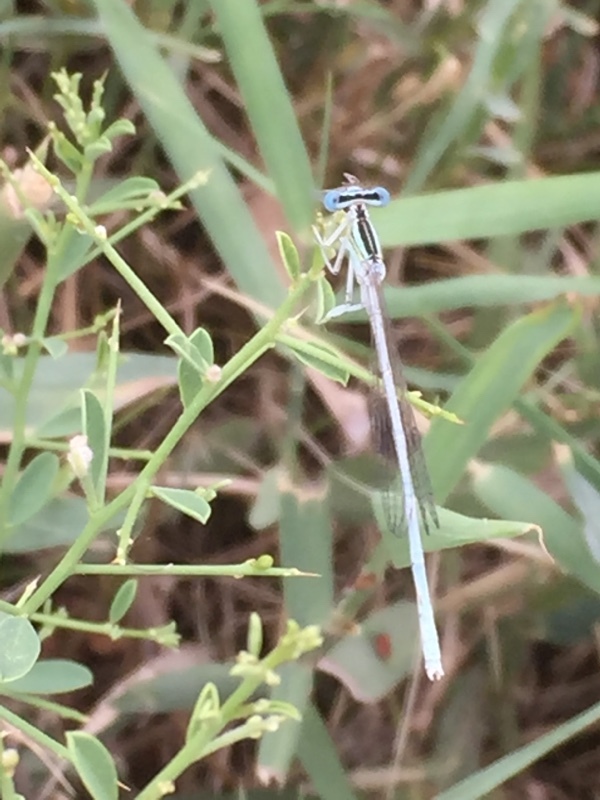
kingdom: Animalia
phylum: Arthropoda
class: Insecta
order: Odonata
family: Platycnemididae
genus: Platycnemis
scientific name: Platycnemis dealbata
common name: Ivory featherleg
